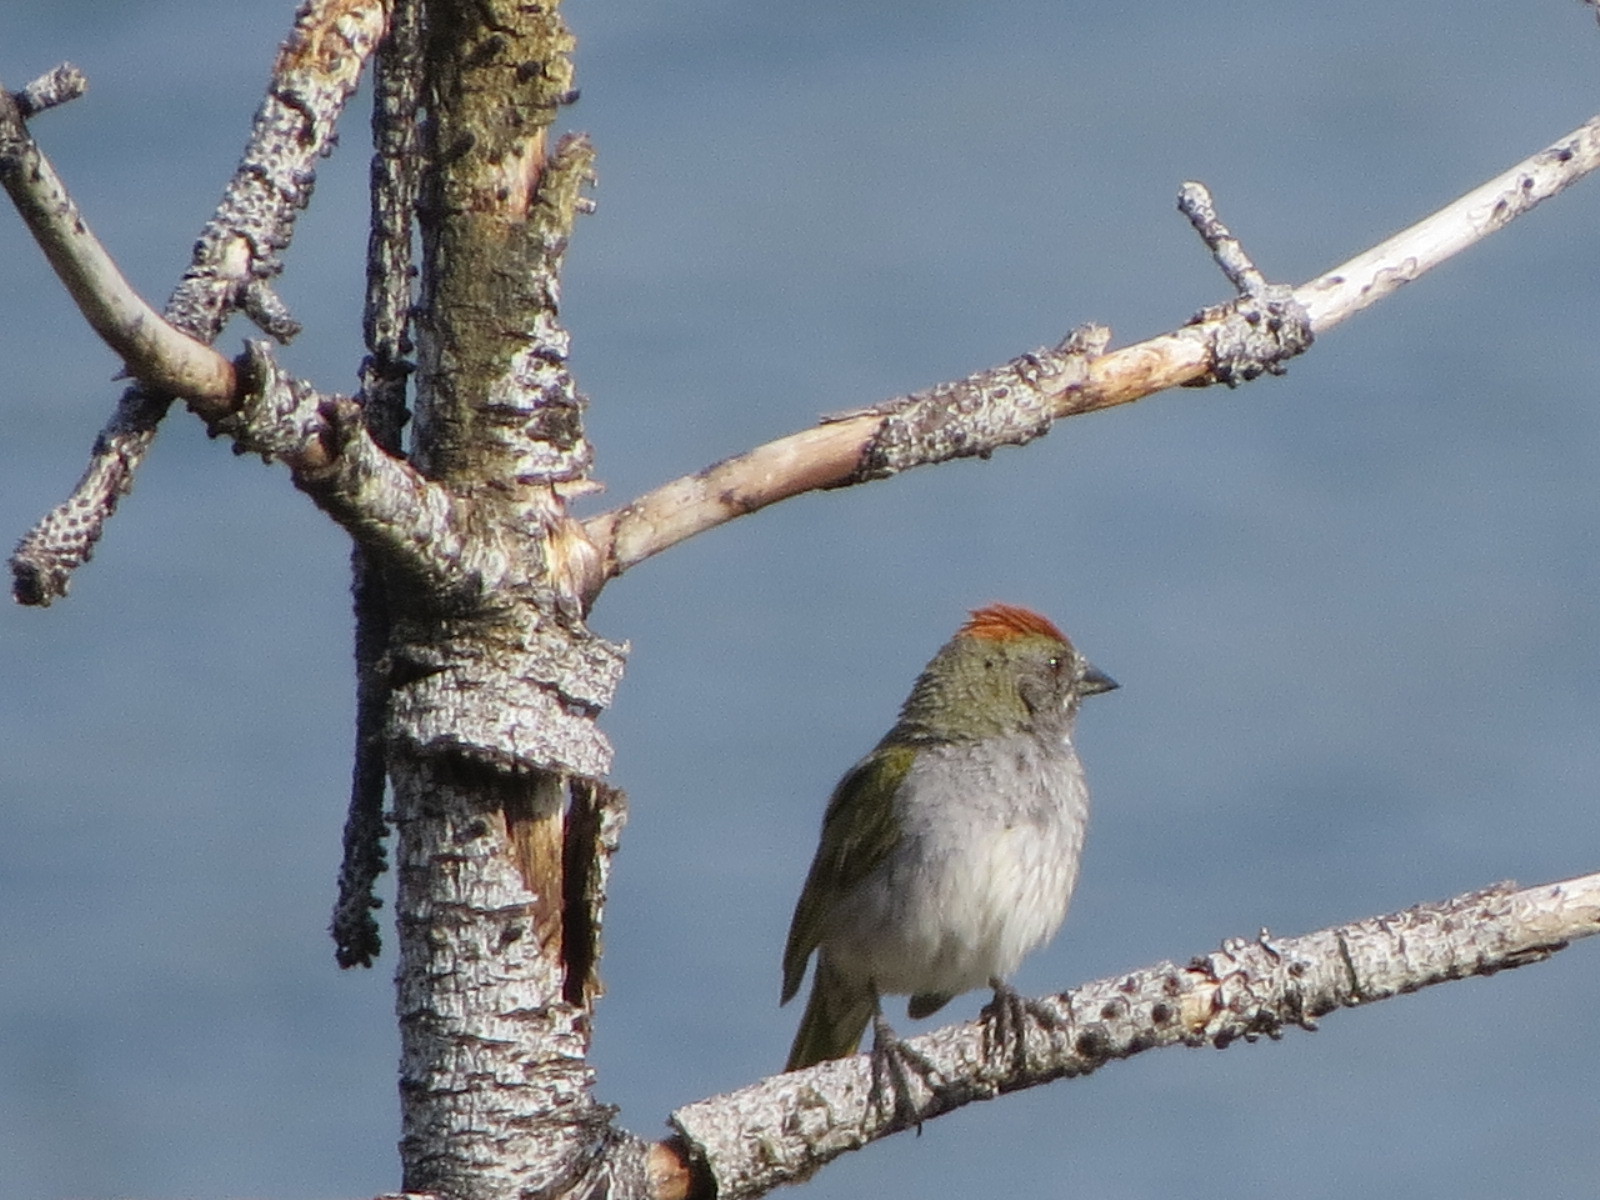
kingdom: Animalia
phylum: Chordata
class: Aves
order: Passeriformes
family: Passerellidae
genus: Pipilo
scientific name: Pipilo chlorurus
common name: Green-tailed towhee
